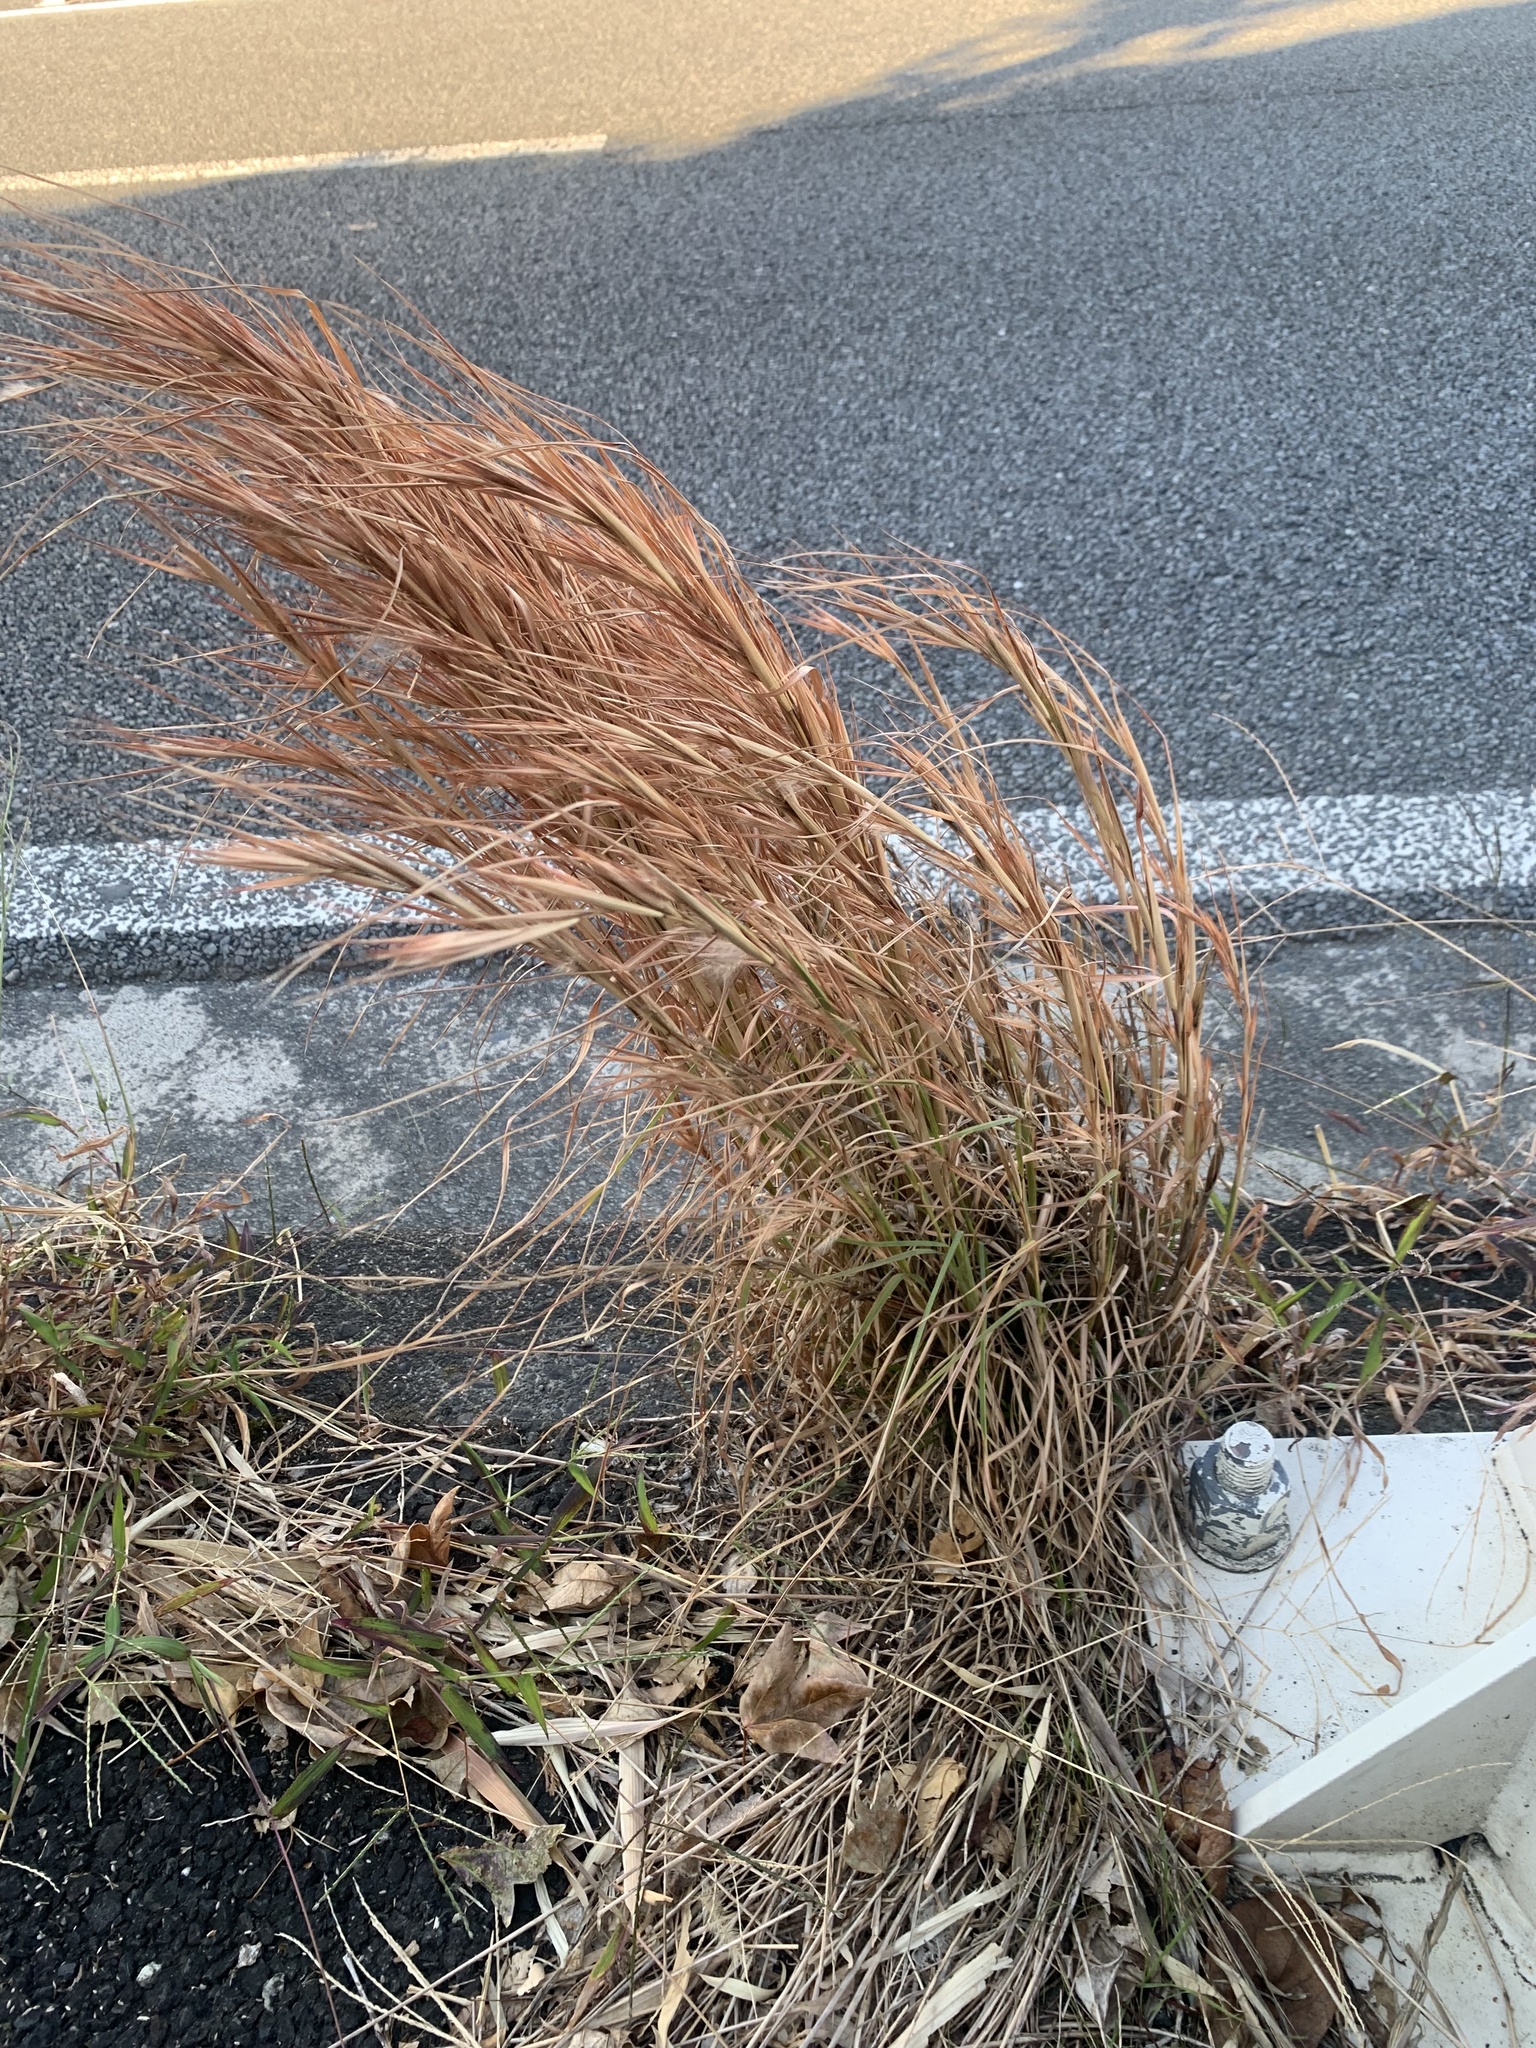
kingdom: Plantae
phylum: Tracheophyta
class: Liliopsida
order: Poales
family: Poaceae
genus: Andropogon
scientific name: Andropogon virginicus
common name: Broomsedge bluestem
